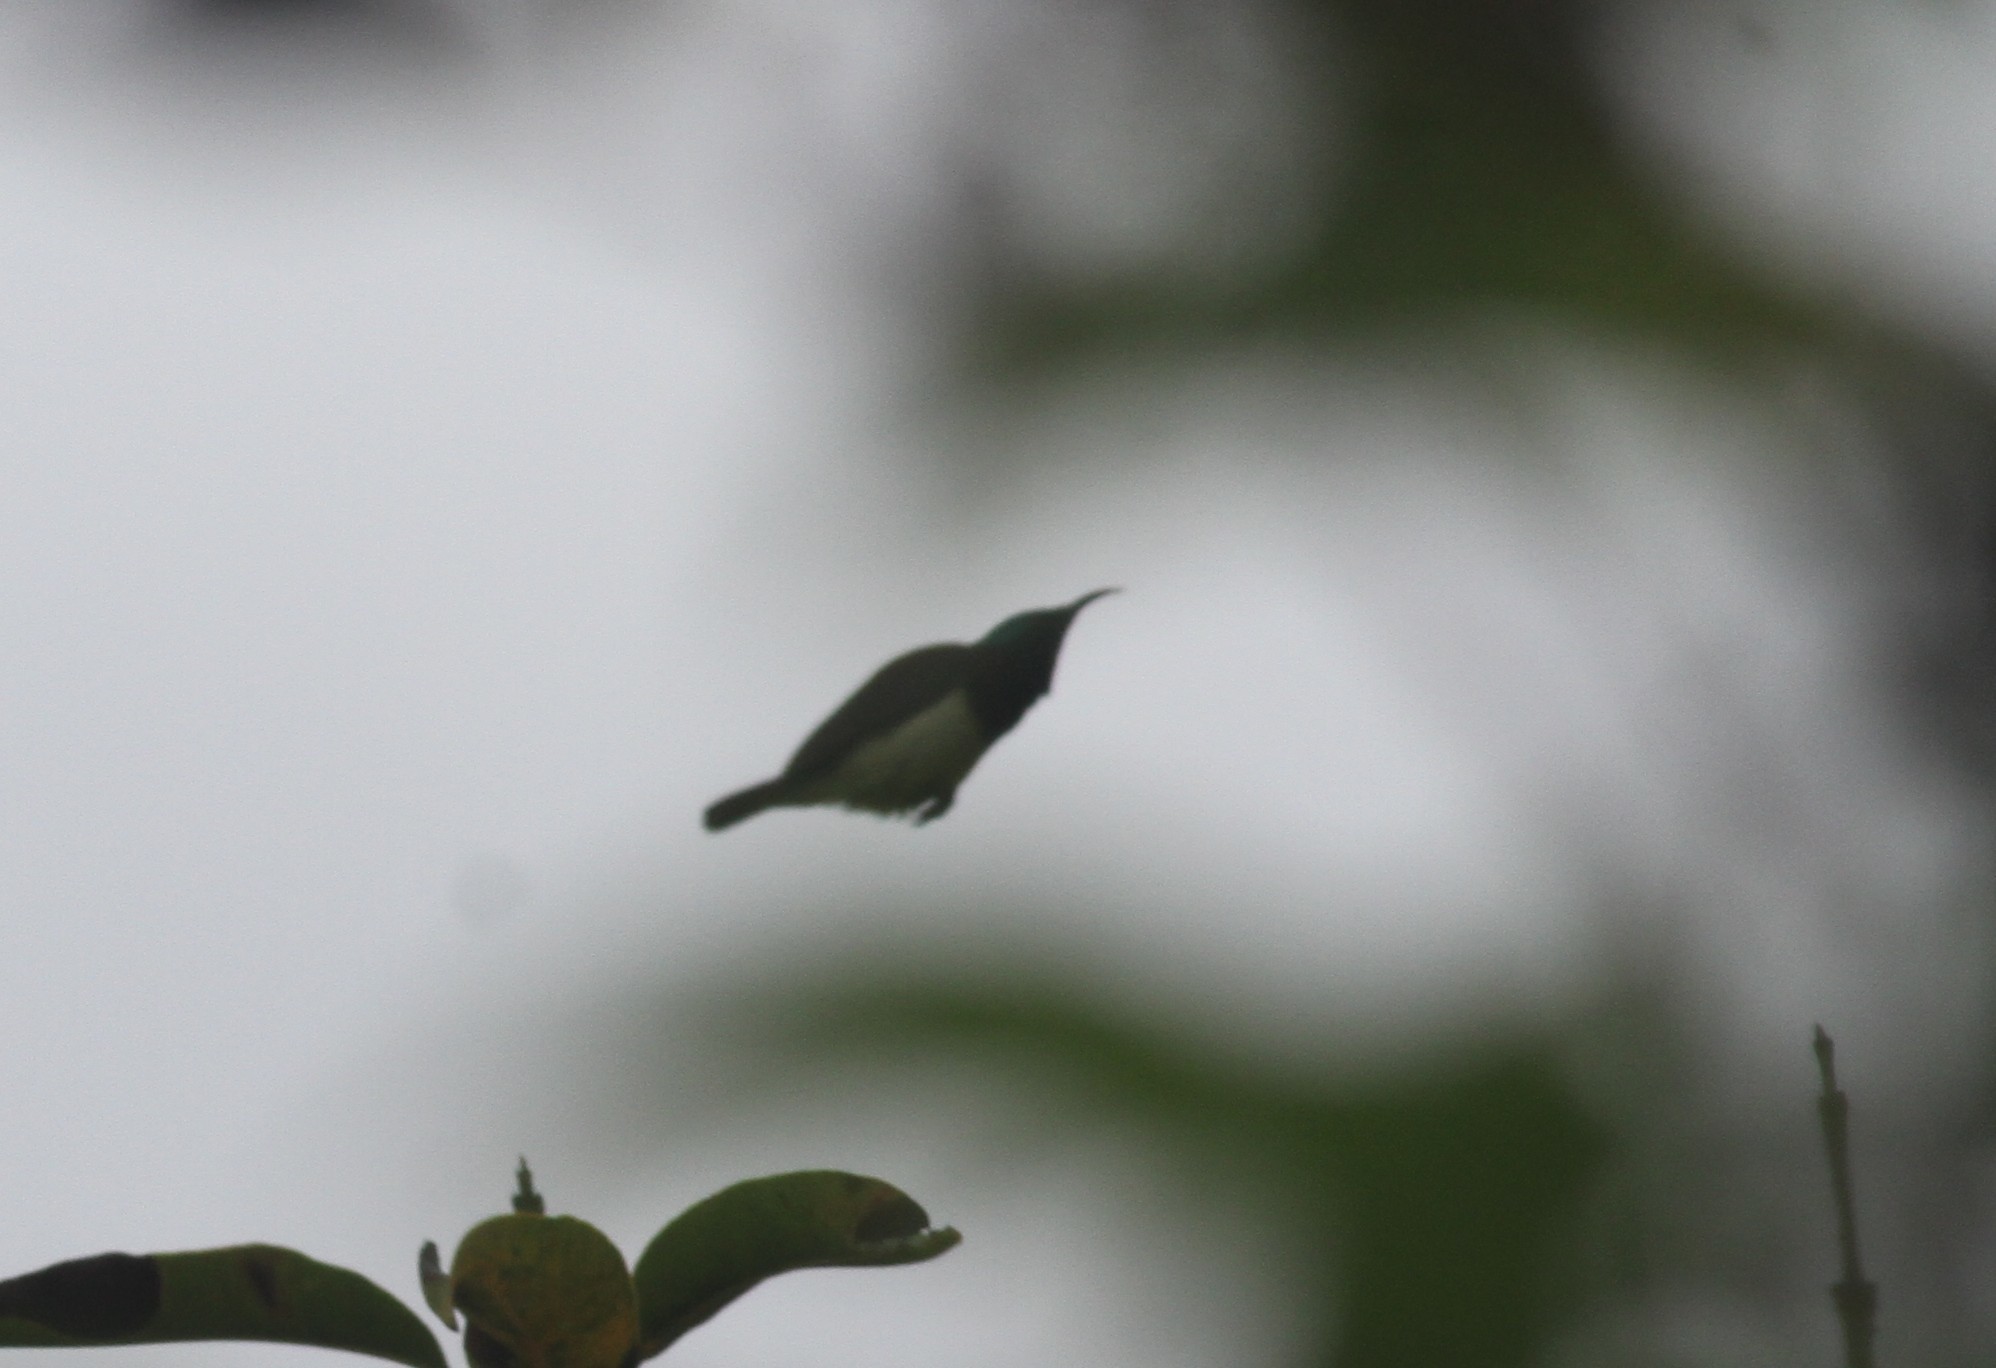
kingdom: Animalia
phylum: Chordata
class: Aves
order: Passeriformes
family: Nectariniidae
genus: Leptocoma
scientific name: Leptocoma zeylonica
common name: Purple-rumped sunbird
